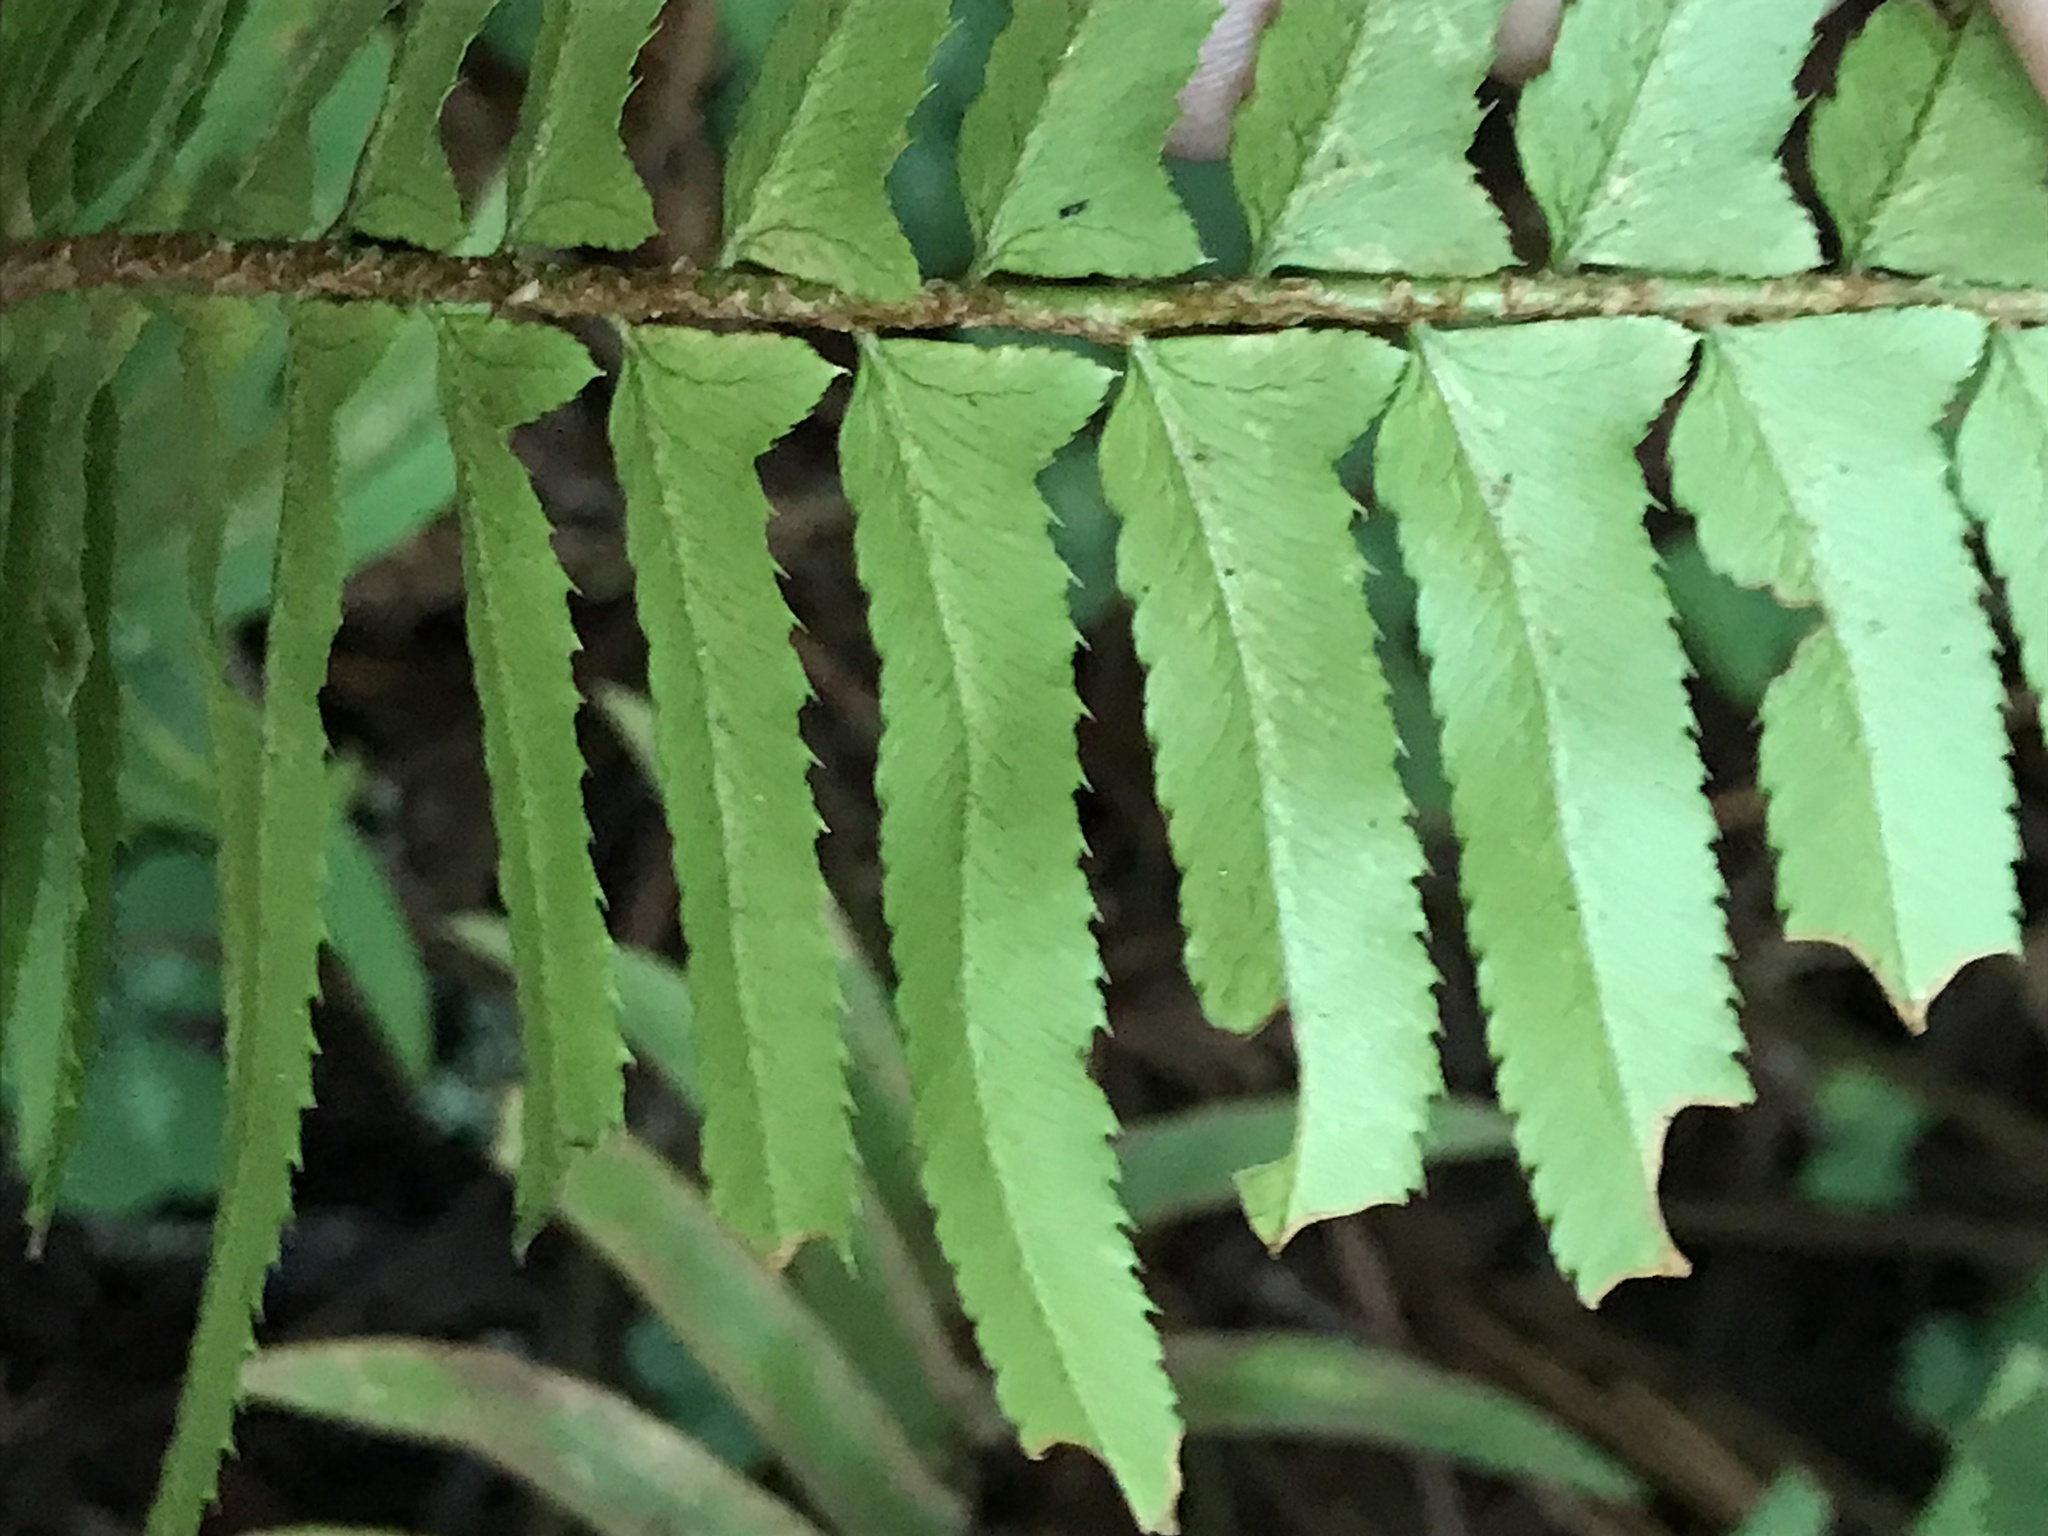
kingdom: Plantae
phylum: Tracheophyta
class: Polypodiopsida
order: Polypodiales
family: Dryopteridaceae
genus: Polystichum
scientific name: Polystichum munitum
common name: Western sword-fern
